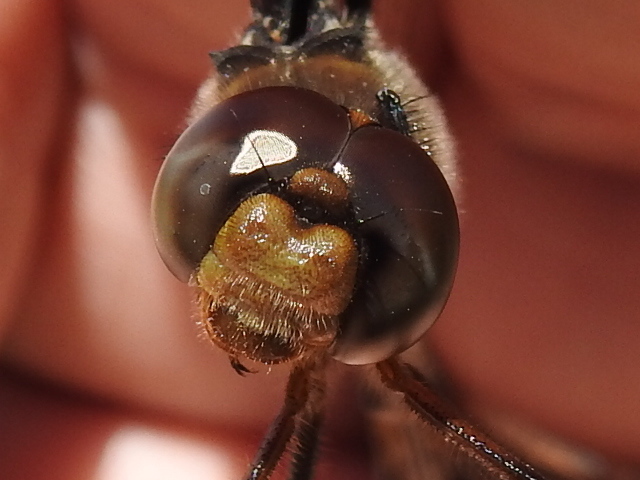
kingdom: Animalia
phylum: Arthropoda
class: Insecta
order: Odonata
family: Corduliidae
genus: Epitheca
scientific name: Epitheca princeps
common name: Prince baskettail
